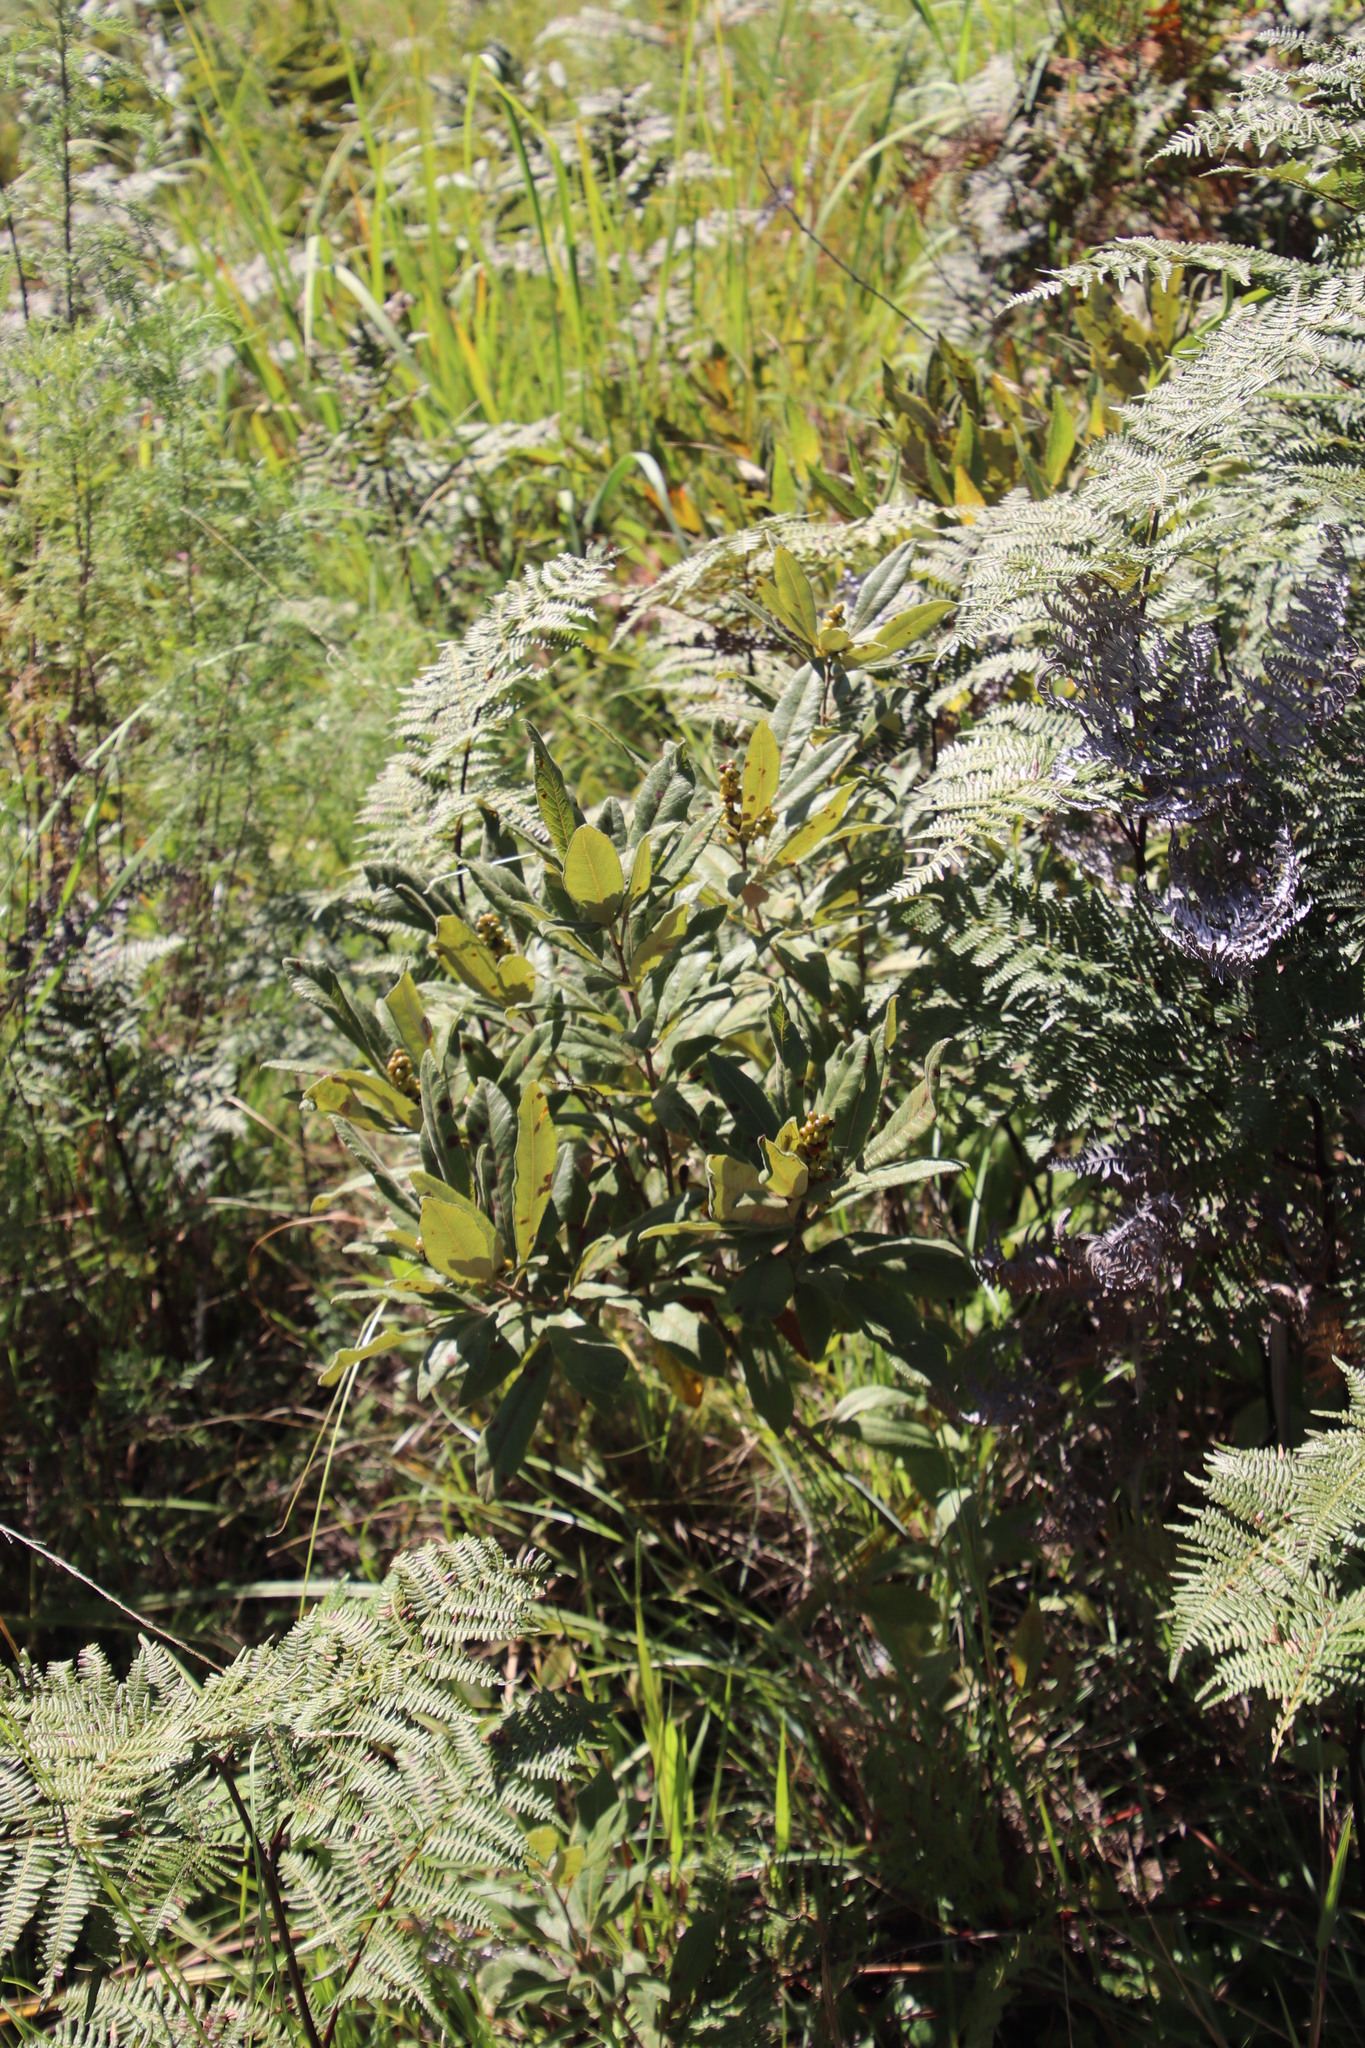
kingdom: Plantae
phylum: Tracheophyta
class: Magnoliopsida
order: Sapindales
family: Anacardiaceae
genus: Searsia
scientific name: Searsia discolor
